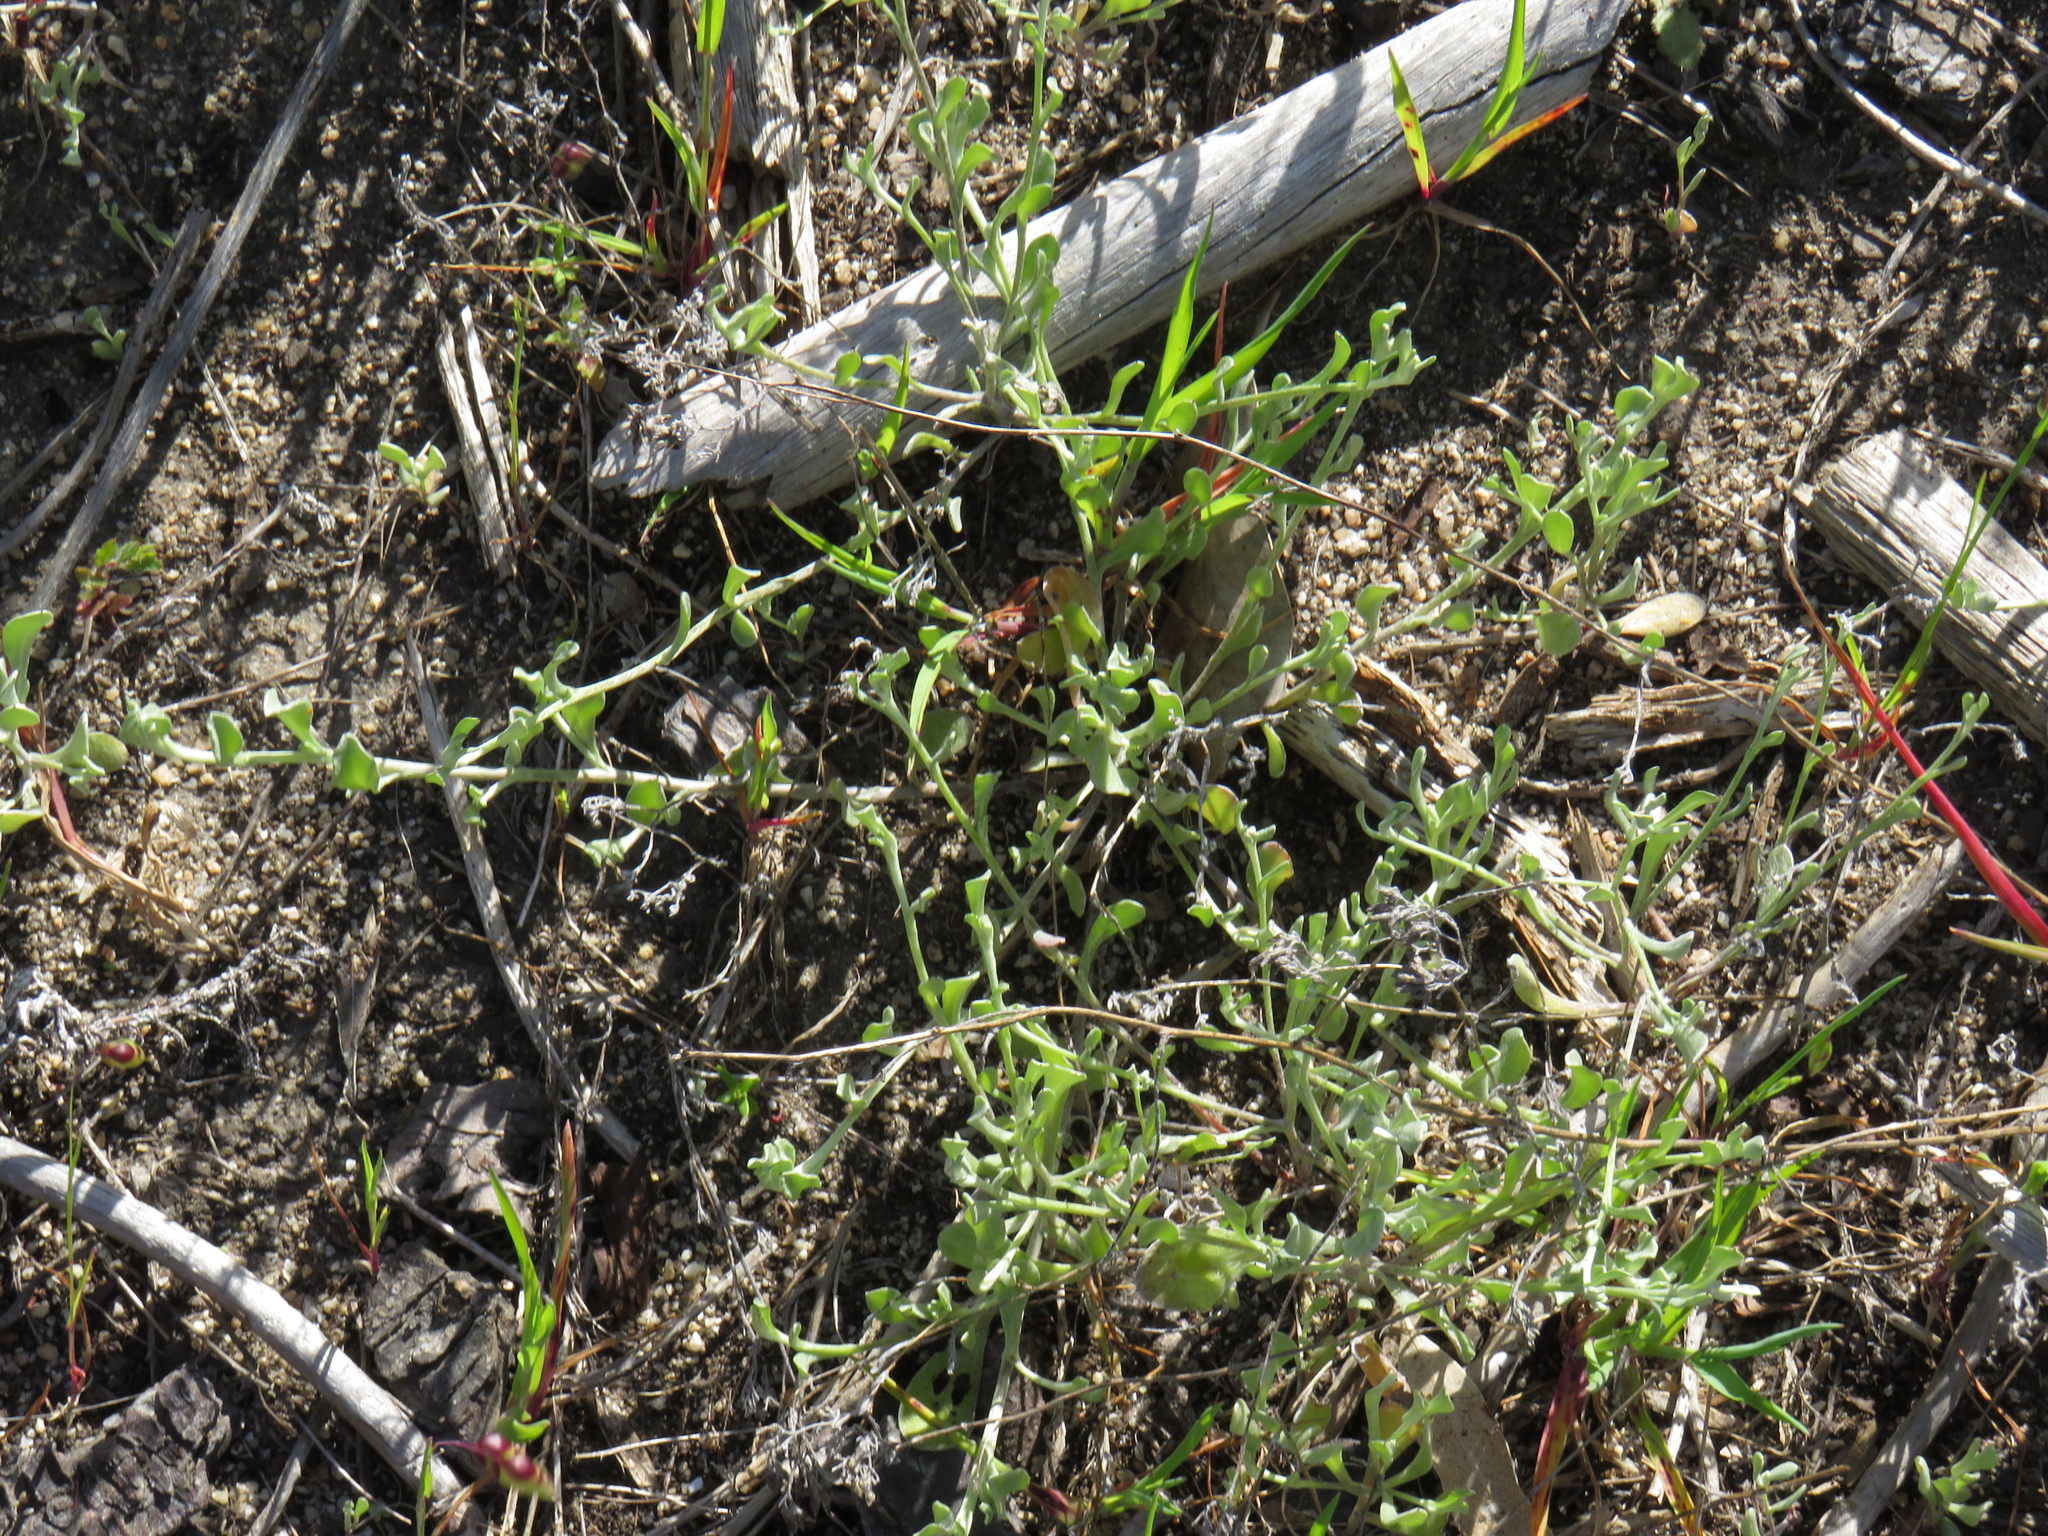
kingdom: Plantae
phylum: Tracheophyta
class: Magnoliopsida
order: Asterales
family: Asteraceae
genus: Helichrysum
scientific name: Helichrysum indicum
